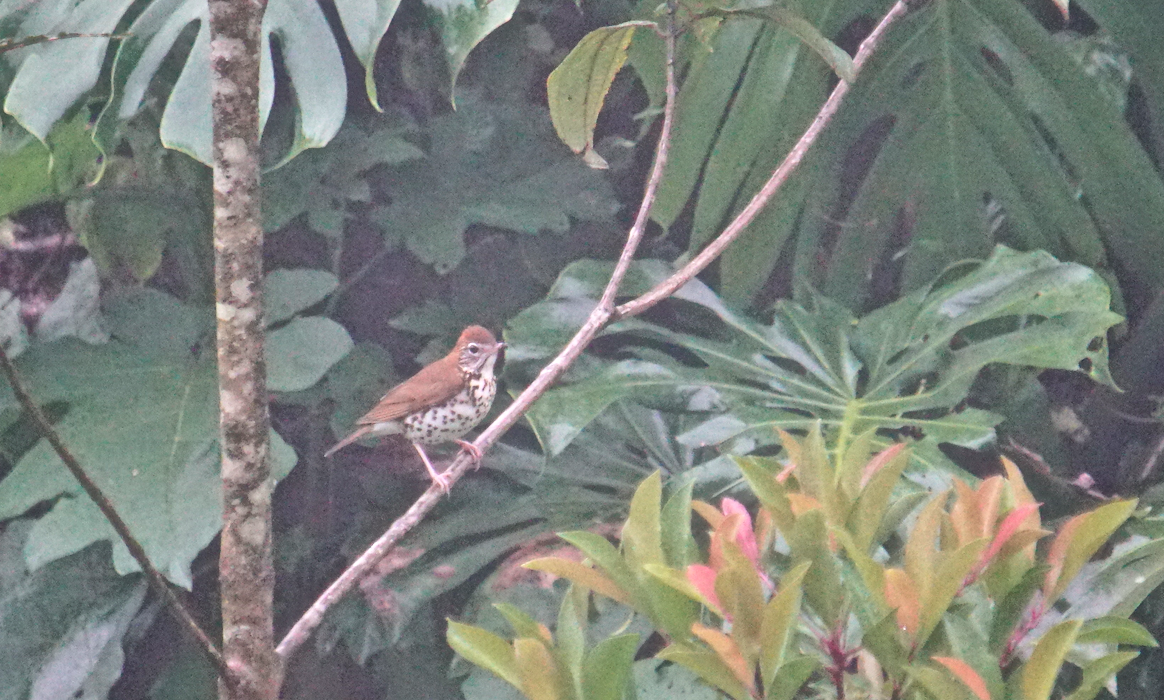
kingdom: Animalia
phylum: Chordata
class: Aves
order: Passeriformes
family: Turdidae
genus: Hylocichla
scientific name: Hylocichla mustelina
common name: Wood thrush
